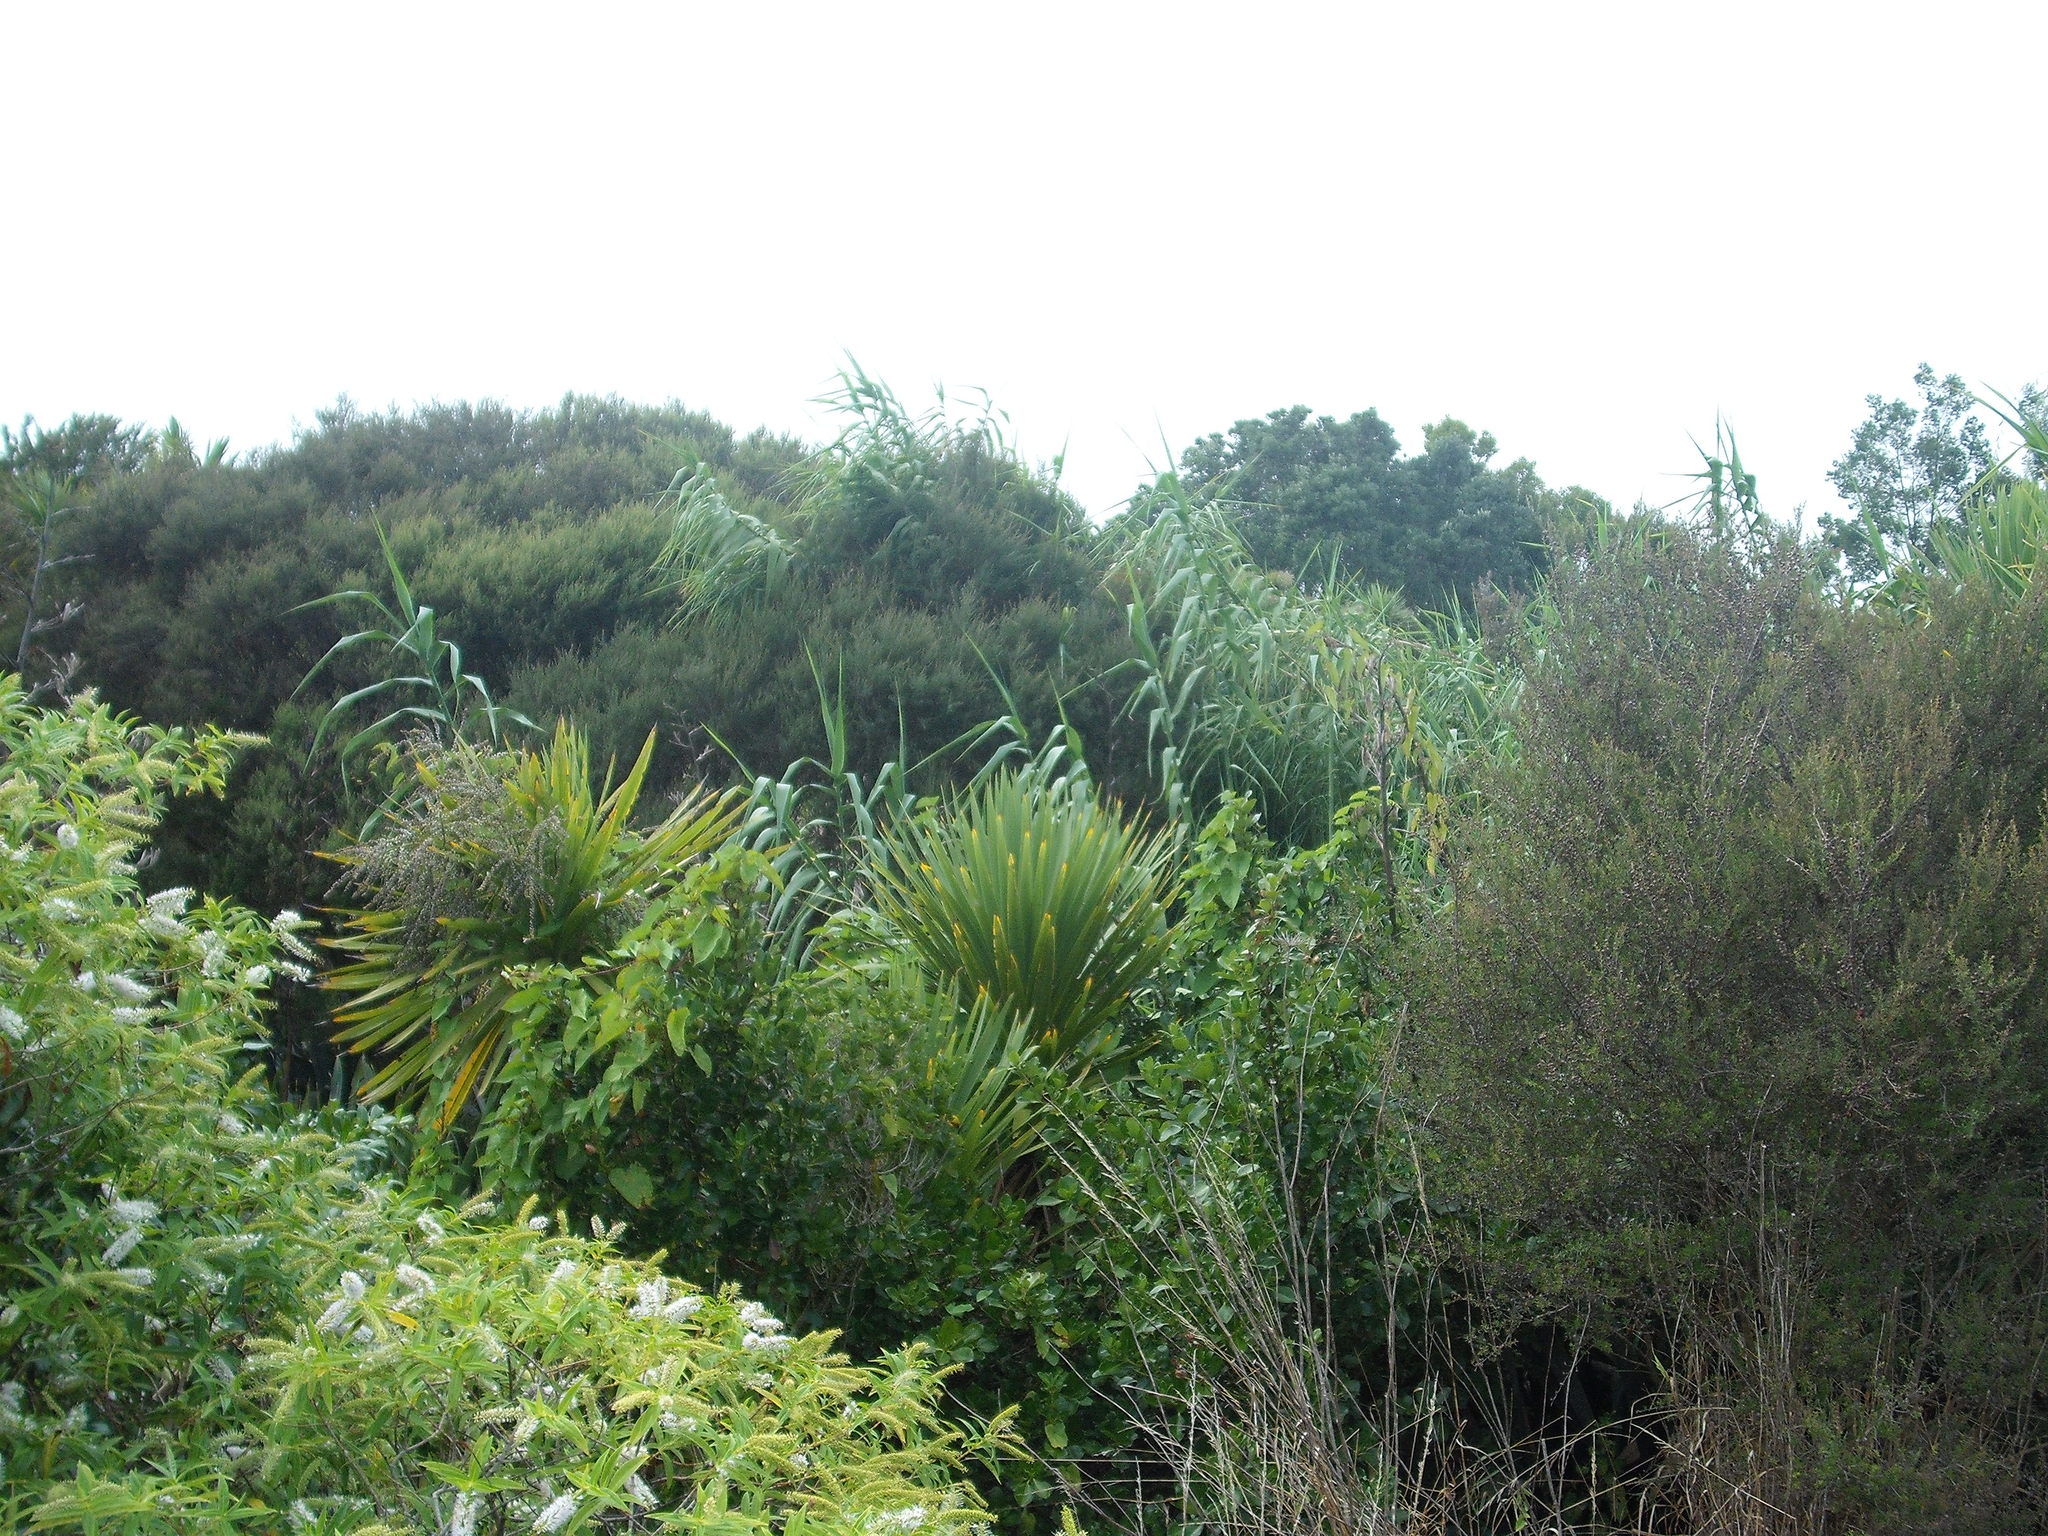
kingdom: Plantae
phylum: Tracheophyta
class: Liliopsida
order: Poales
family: Poaceae
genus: Arundo
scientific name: Arundo donax
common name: Giant reed
